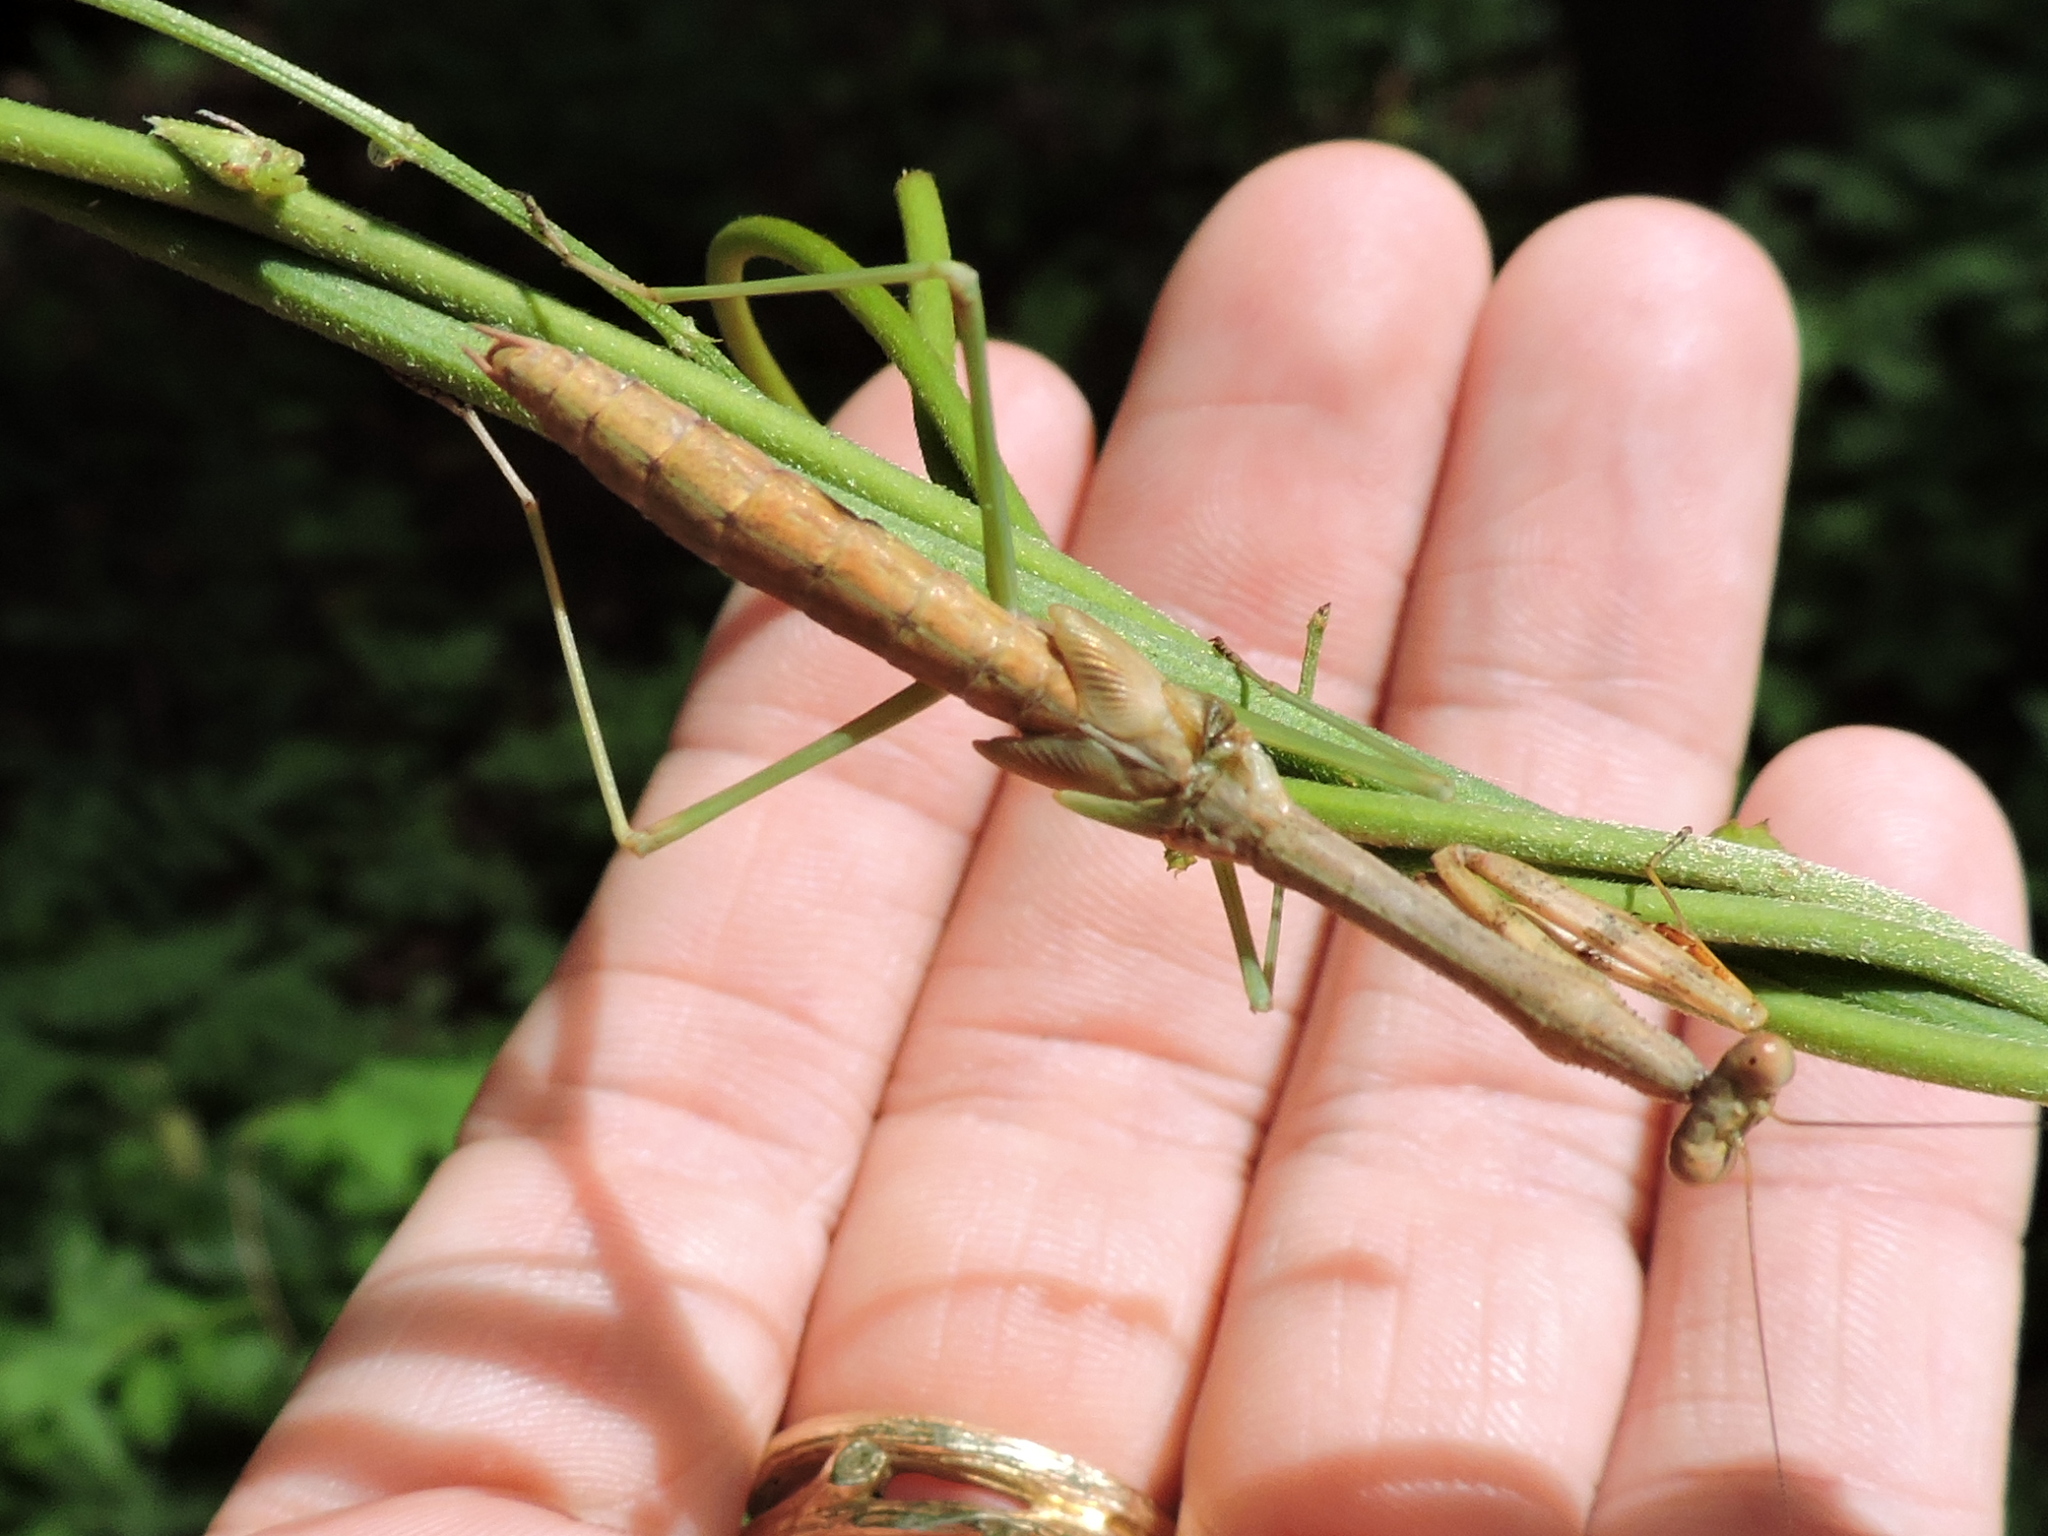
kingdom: Animalia
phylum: Arthropoda
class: Insecta
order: Mantodea
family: Mantidae
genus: Stagmomantis
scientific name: Stagmomantis carolina
